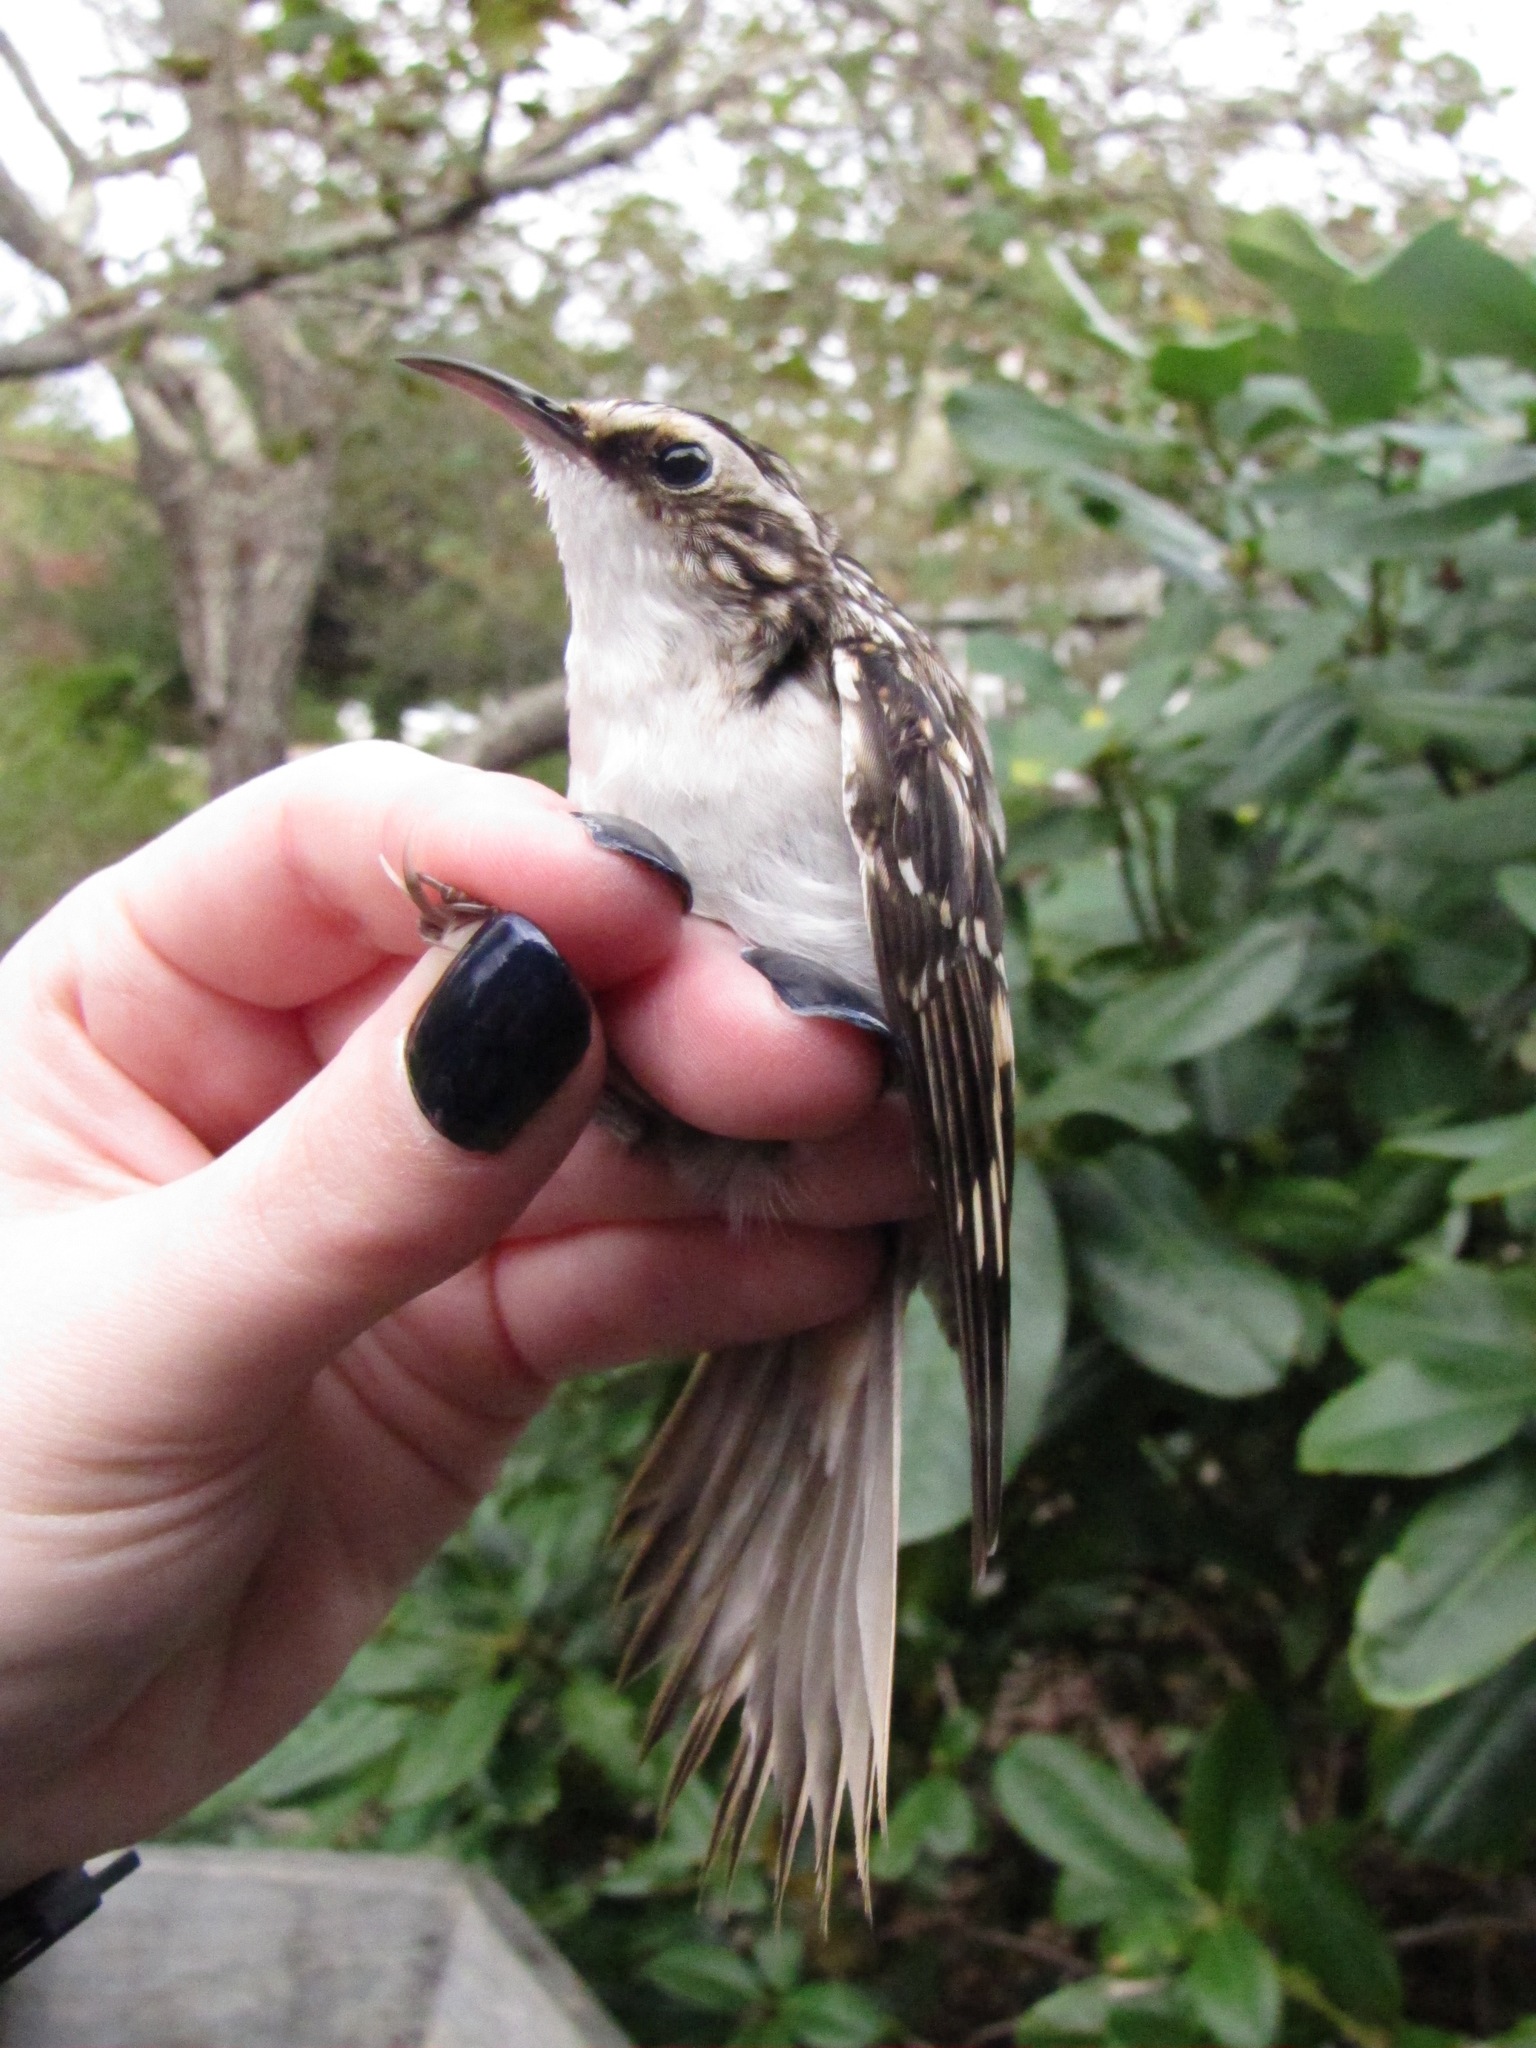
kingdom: Animalia
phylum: Chordata
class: Aves
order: Passeriformes
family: Certhiidae
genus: Certhia
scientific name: Certhia americana
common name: Brown creeper
